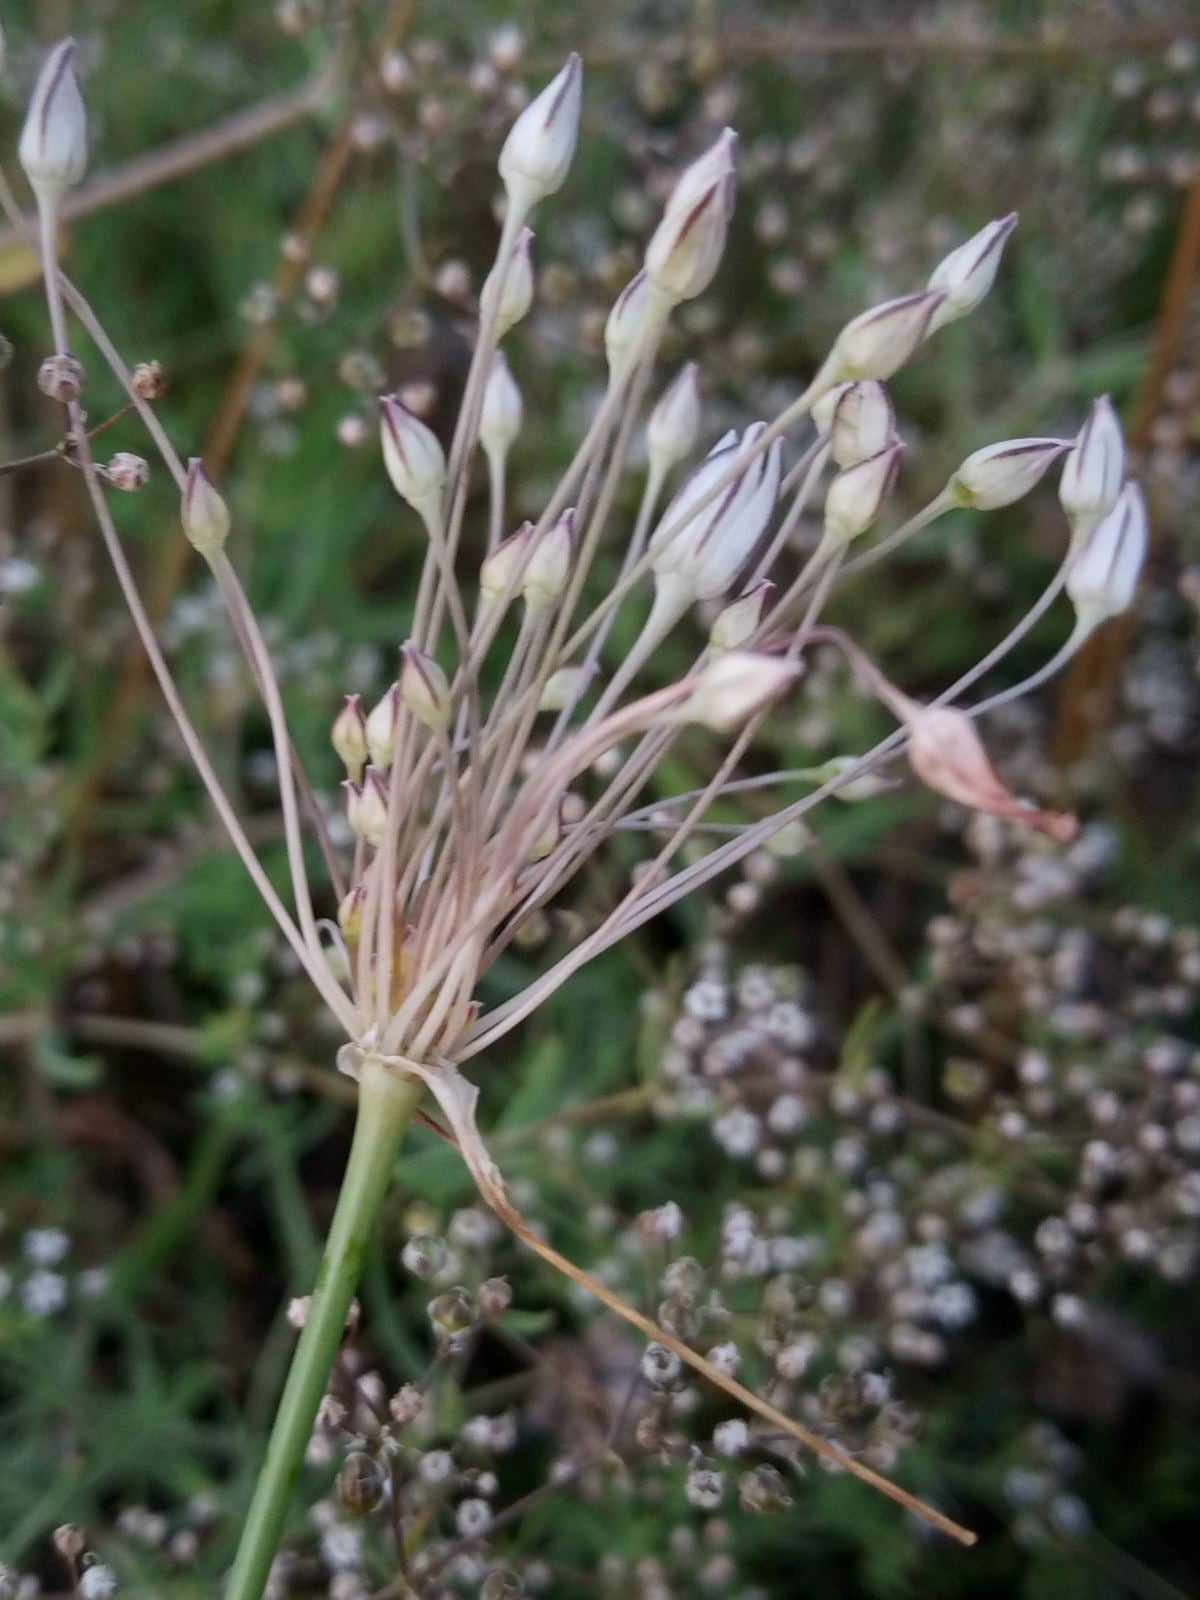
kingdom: Plantae
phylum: Tracheophyta
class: Liliopsida
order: Asparagales
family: Amaryllidaceae
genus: Allium
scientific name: Allium inaequale
